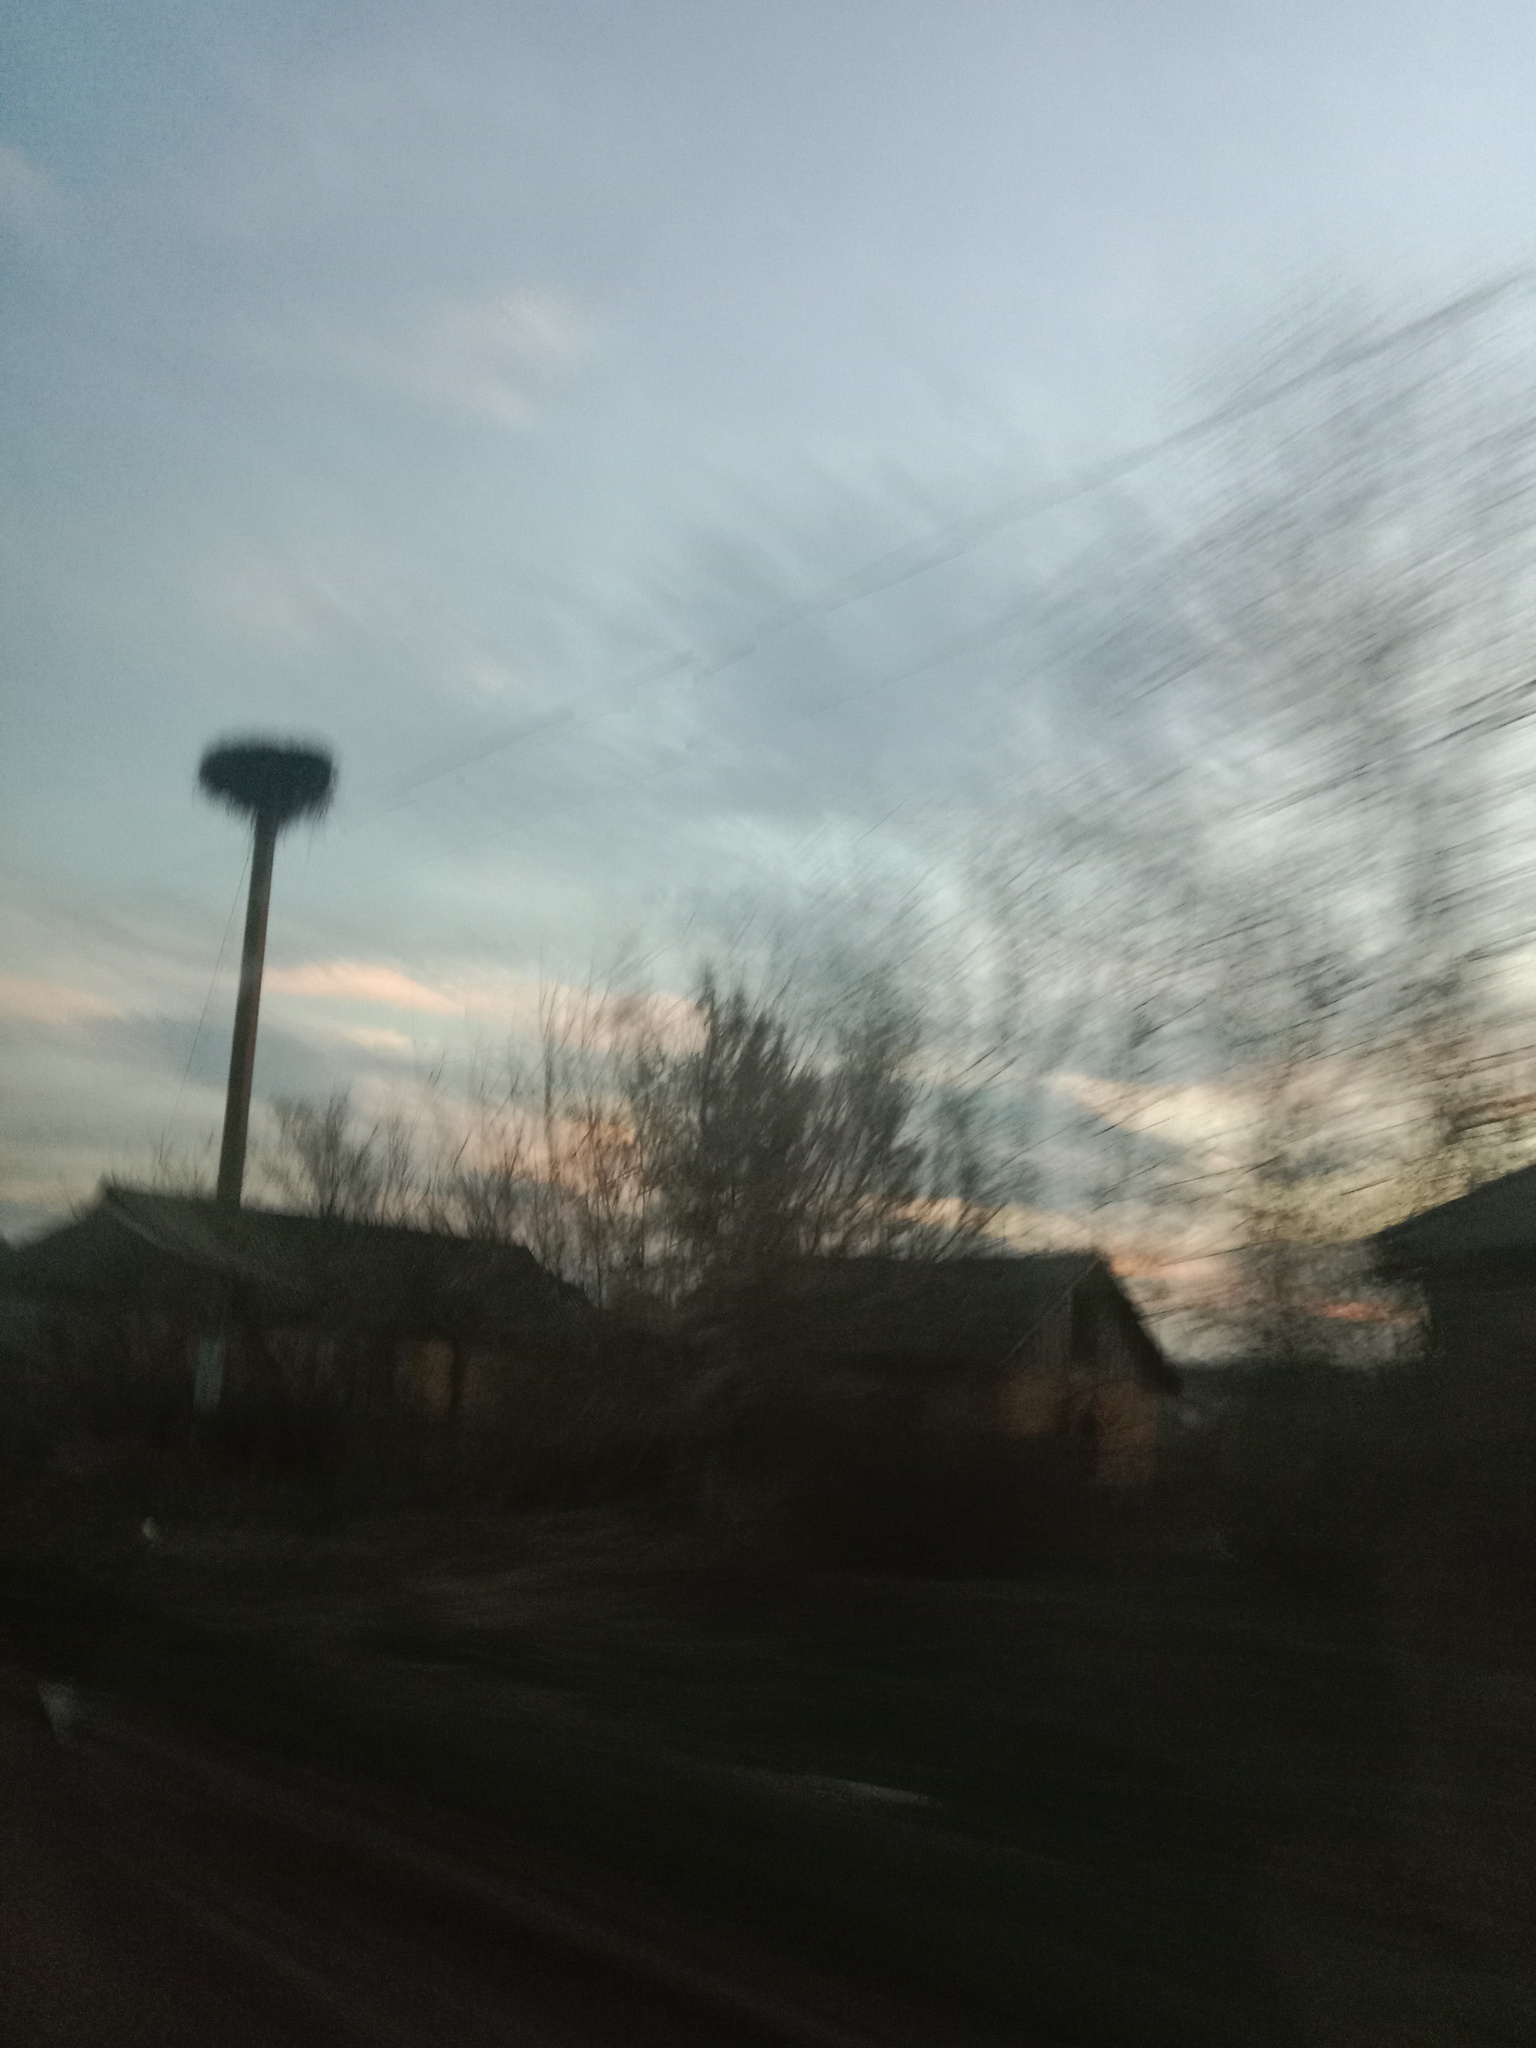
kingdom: Animalia
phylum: Chordata
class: Aves
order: Ciconiiformes
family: Ciconiidae
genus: Ciconia
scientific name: Ciconia ciconia
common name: White stork
